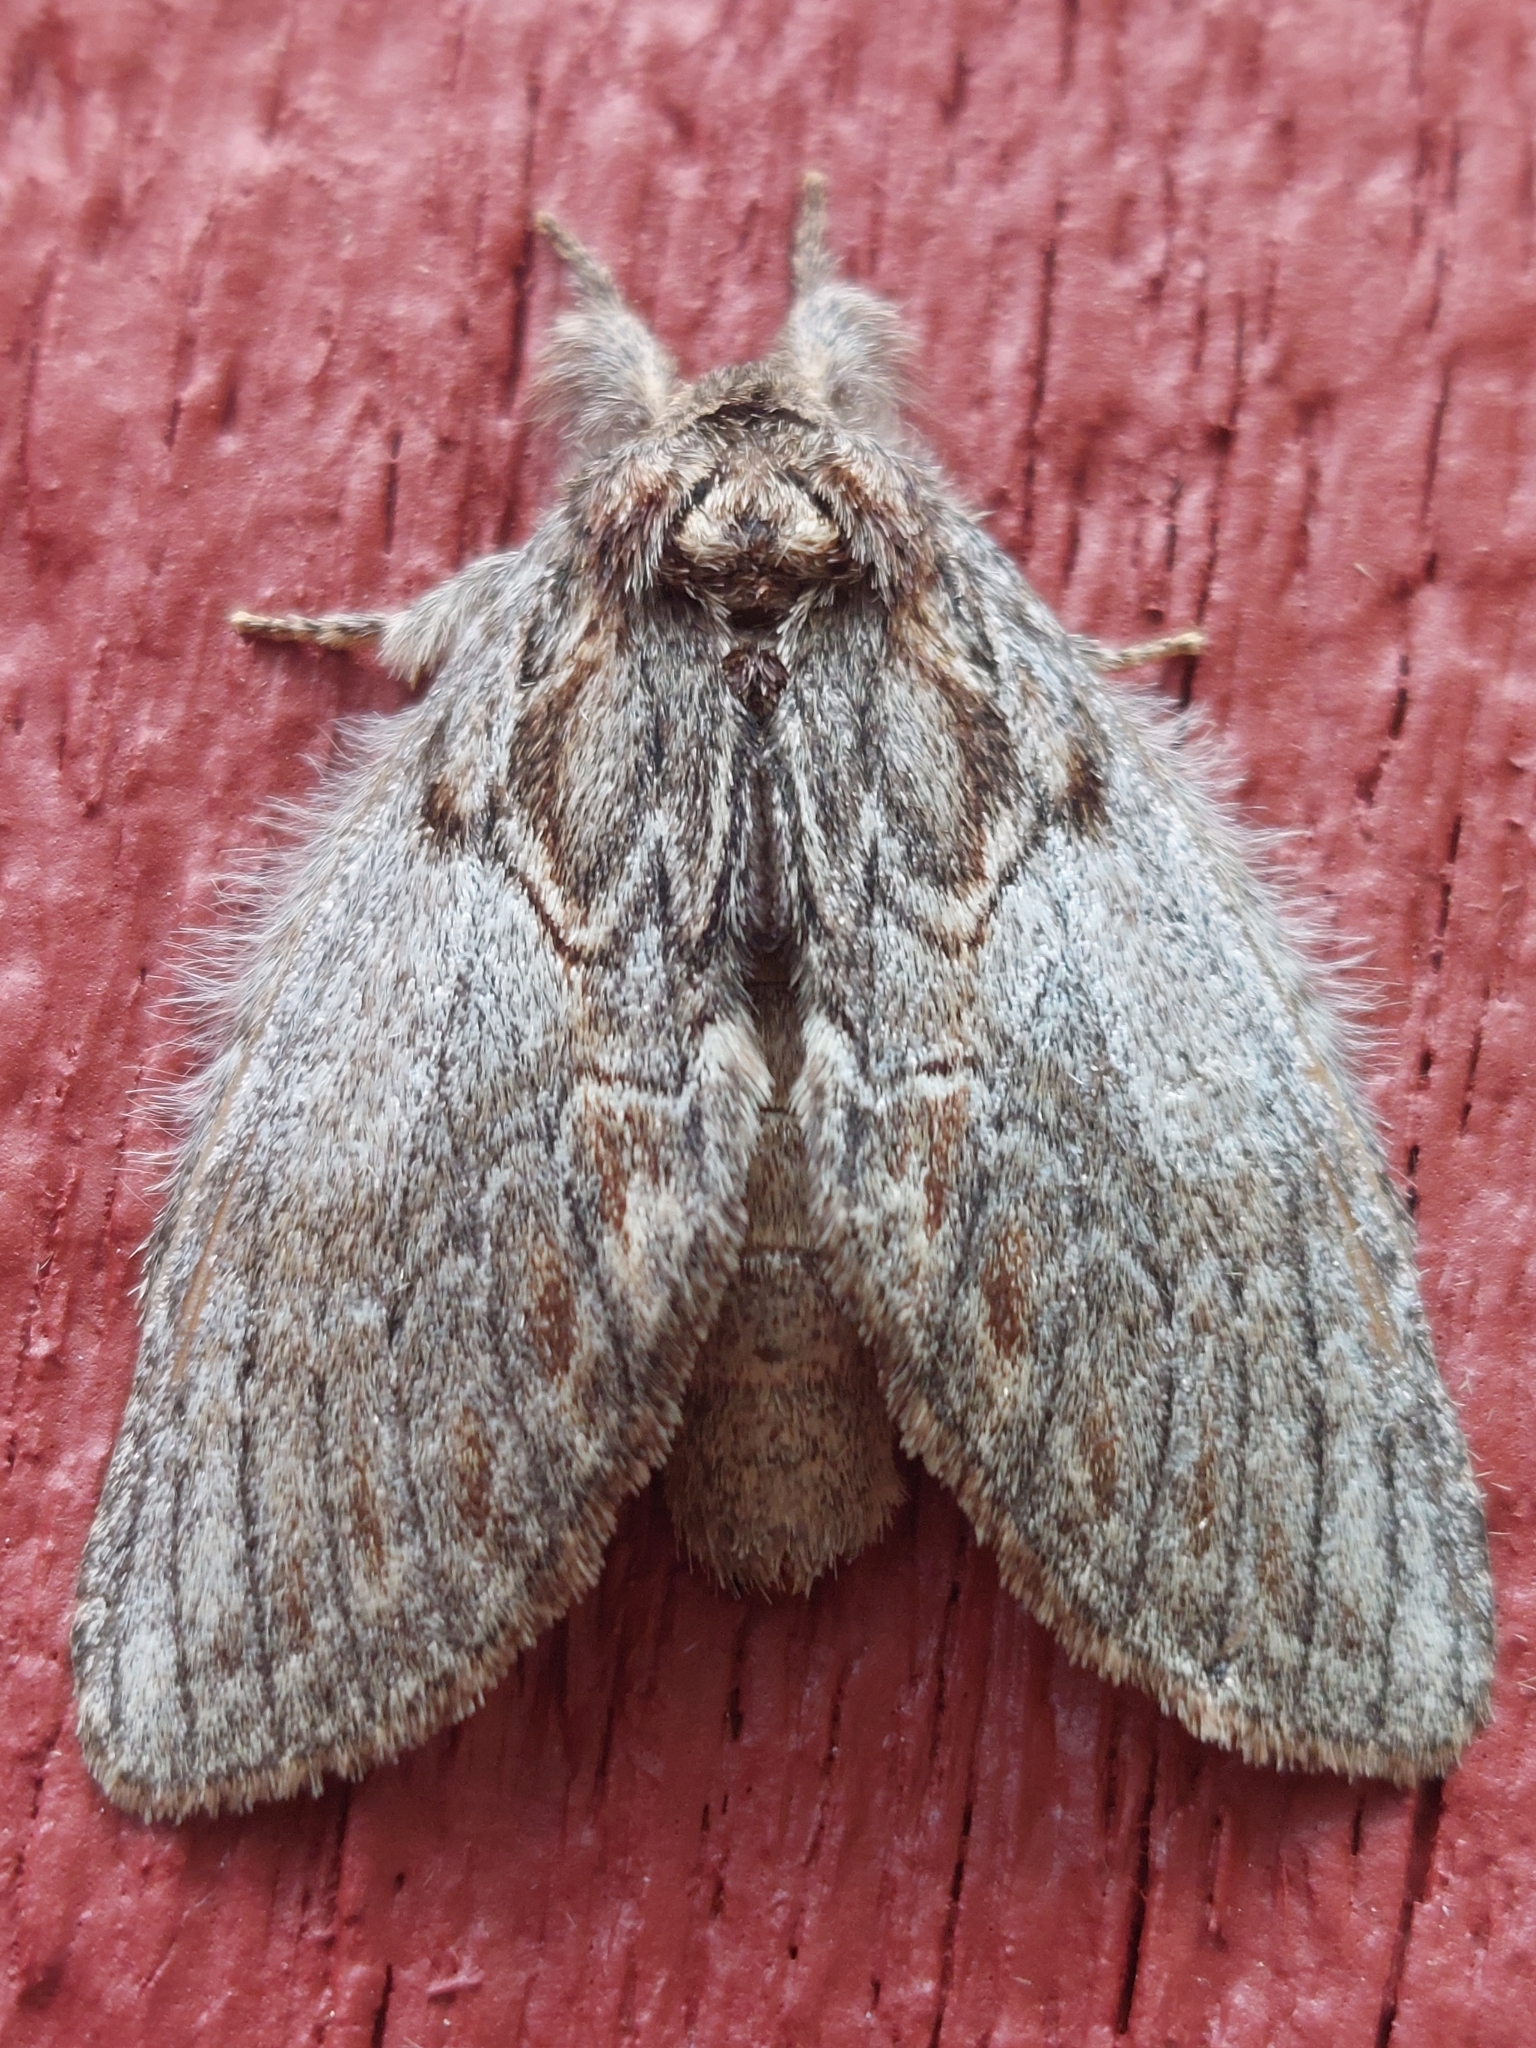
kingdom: Animalia
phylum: Arthropoda
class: Insecta
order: Lepidoptera
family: Notodontidae
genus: Peridea
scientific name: Peridea basitriens
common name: Oval-based prominent
